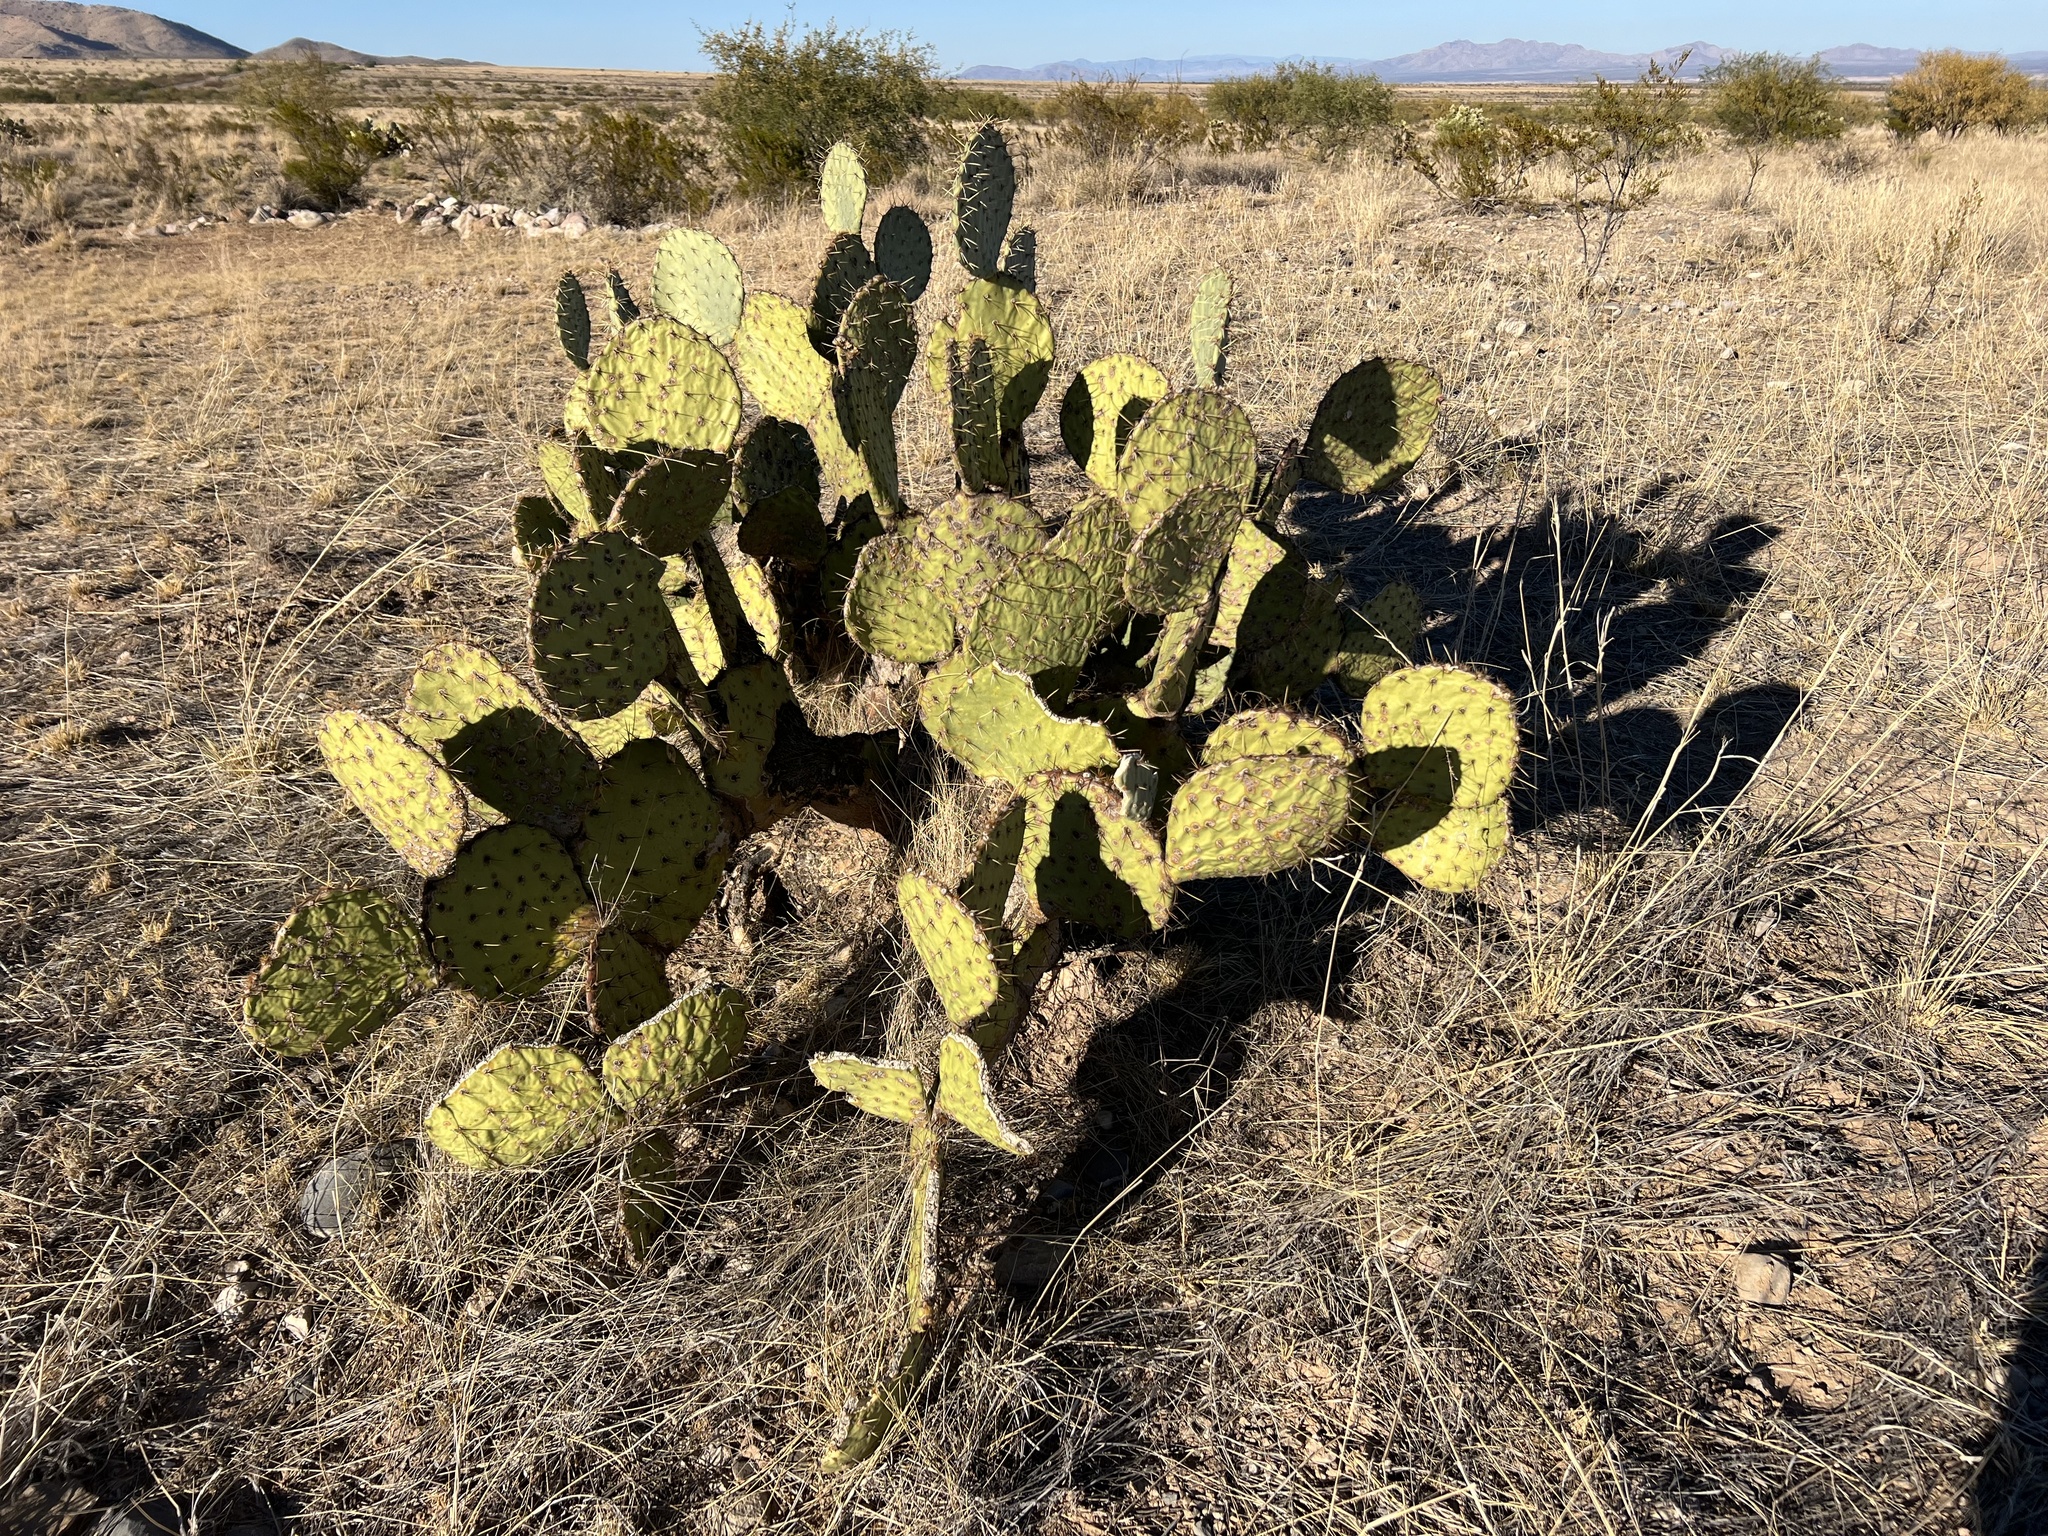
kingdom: Plantae
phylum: Tracheophyta
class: Magnoliopsida
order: Caryophyllales
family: Cactaceae
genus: Opuntia
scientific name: Opuntia engelmannii
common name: Cactus-apple
